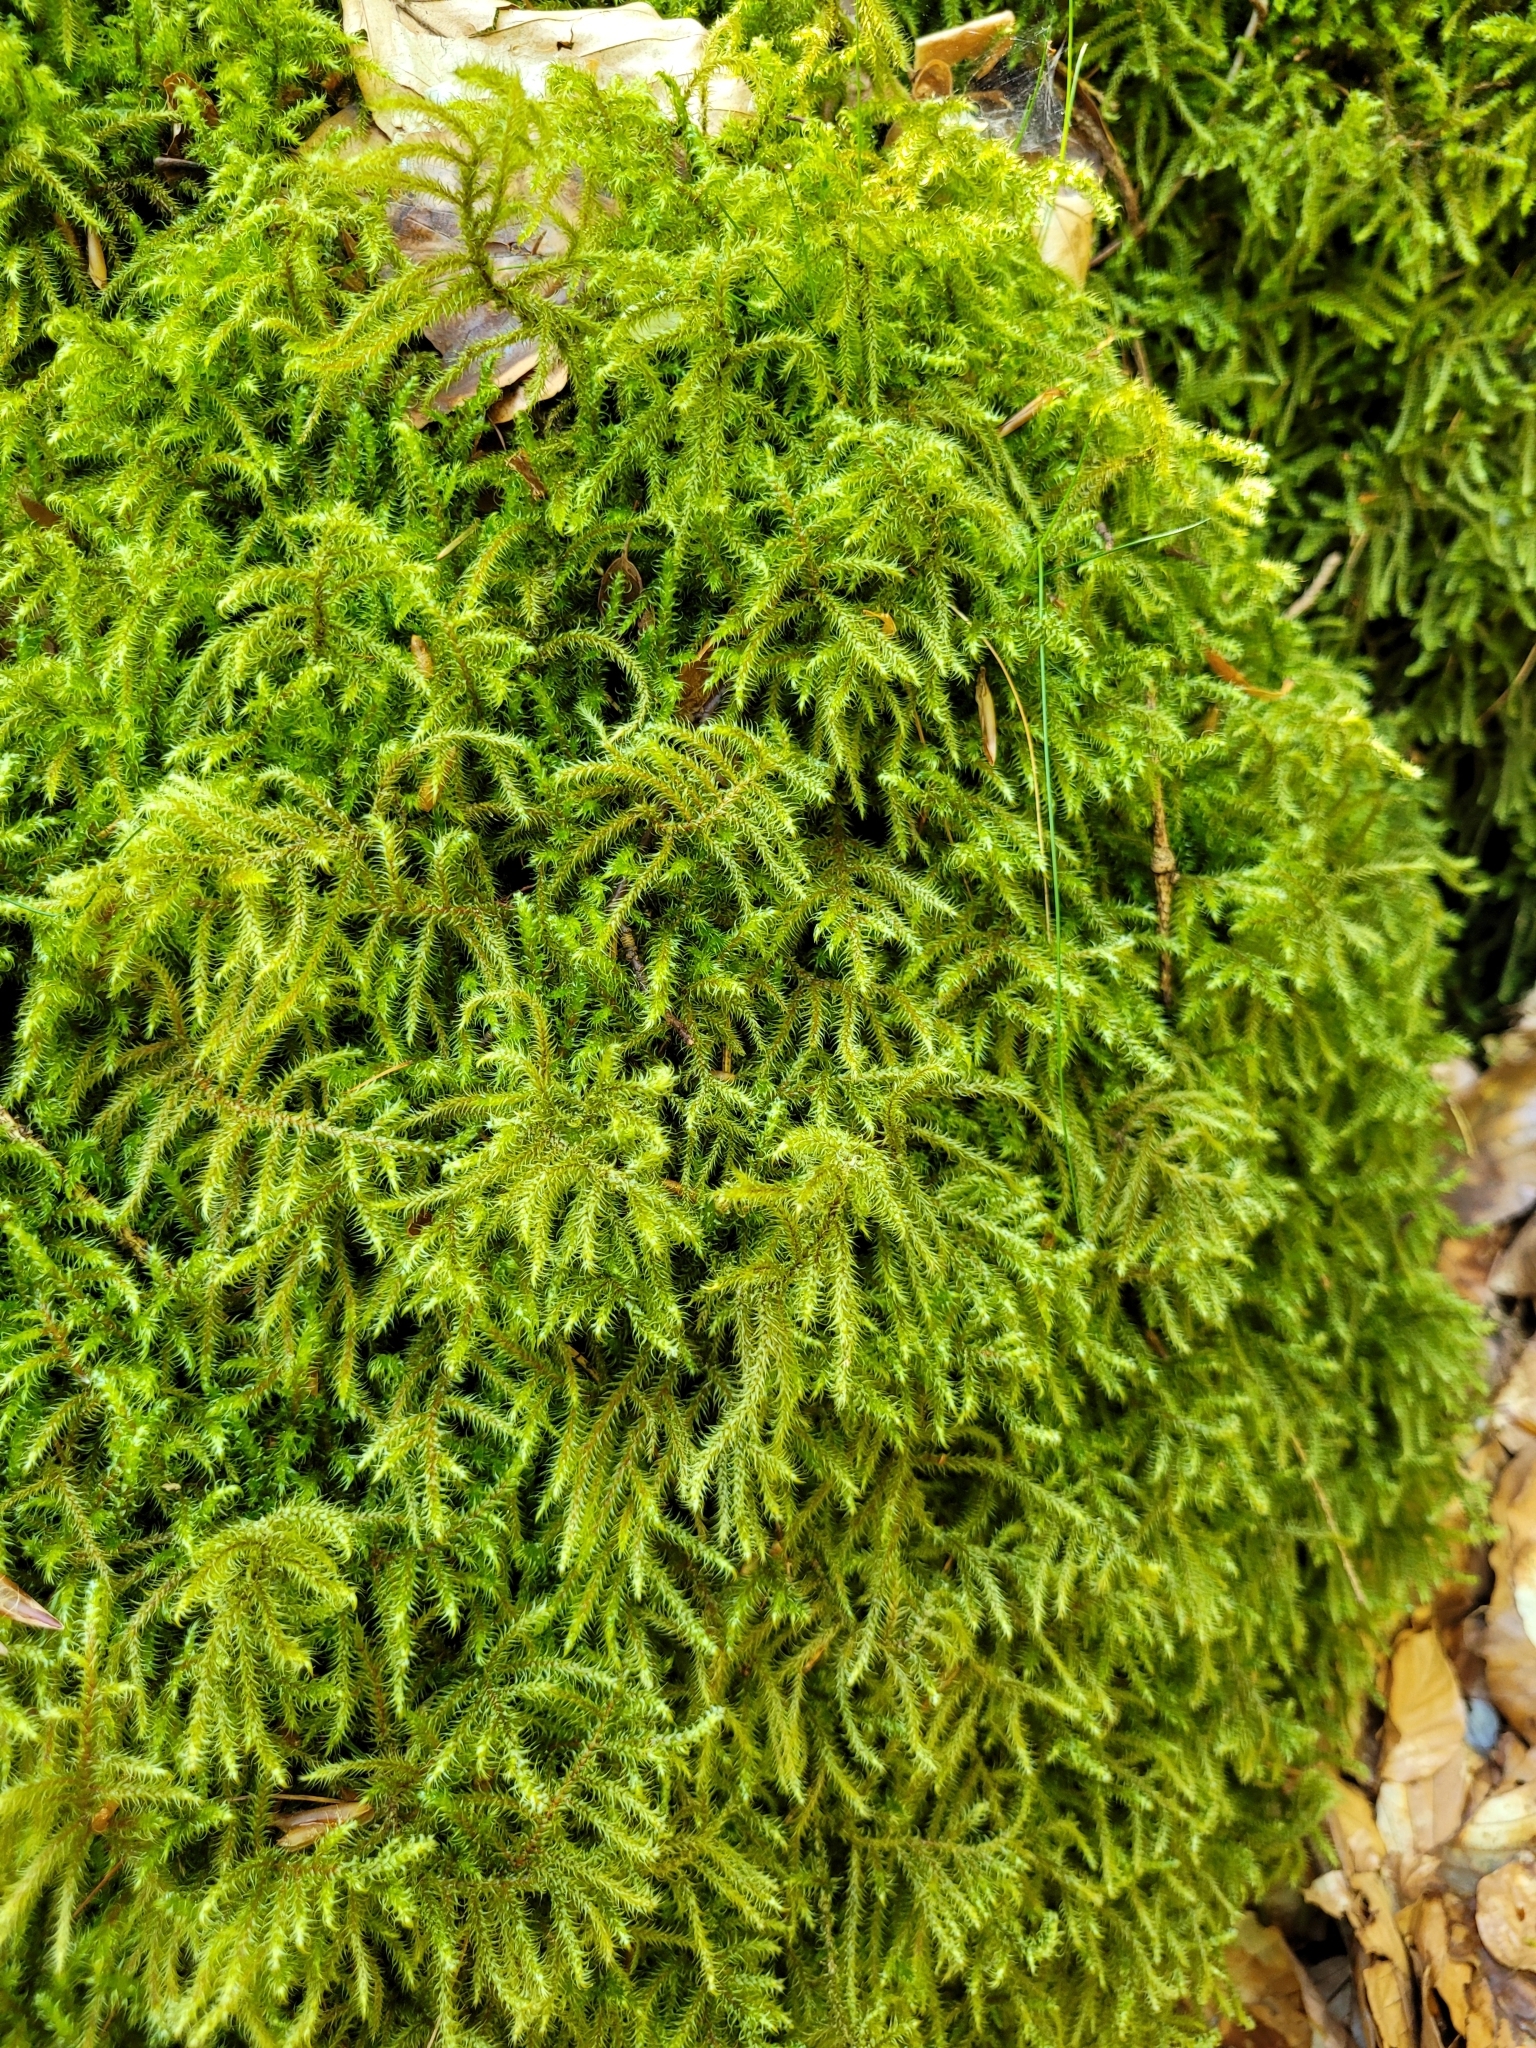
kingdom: Plantae
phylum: Bryophyta
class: Bryopsida
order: Hypnales
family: Hylocomiaceae
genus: Rhytidiadelphus
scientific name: Rhytidiadelphus loreus
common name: Lanky moss
